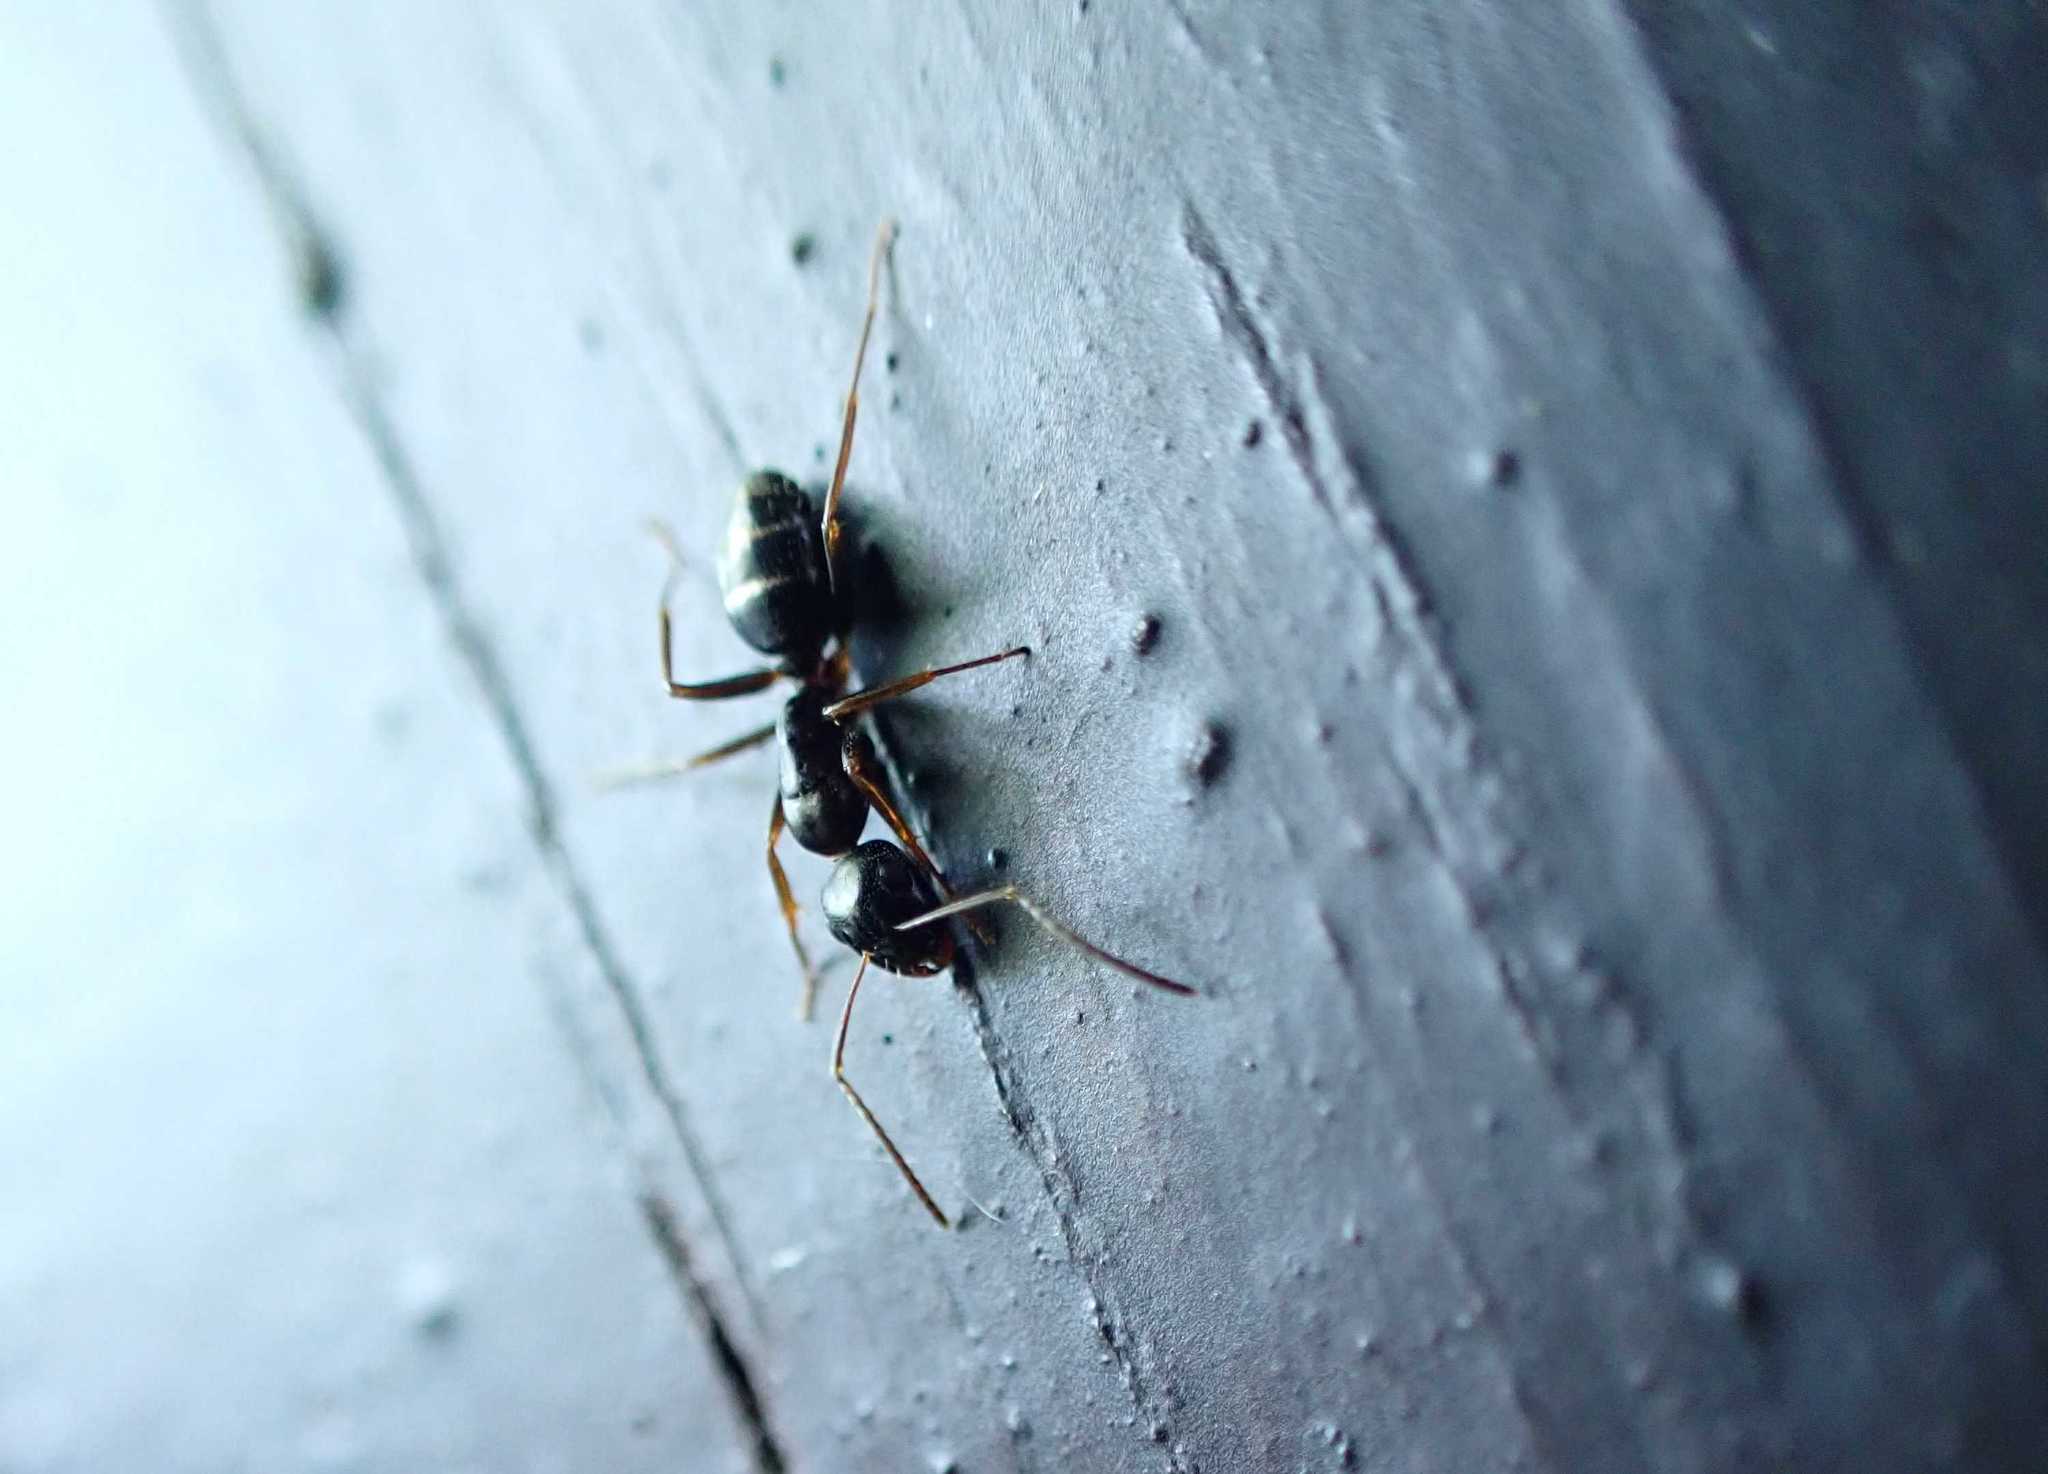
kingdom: Animalia
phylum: Arthropoda
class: Insecta
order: Hymenoptera
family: Formicidae
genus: Camponotus
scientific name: Camponotus fallax
